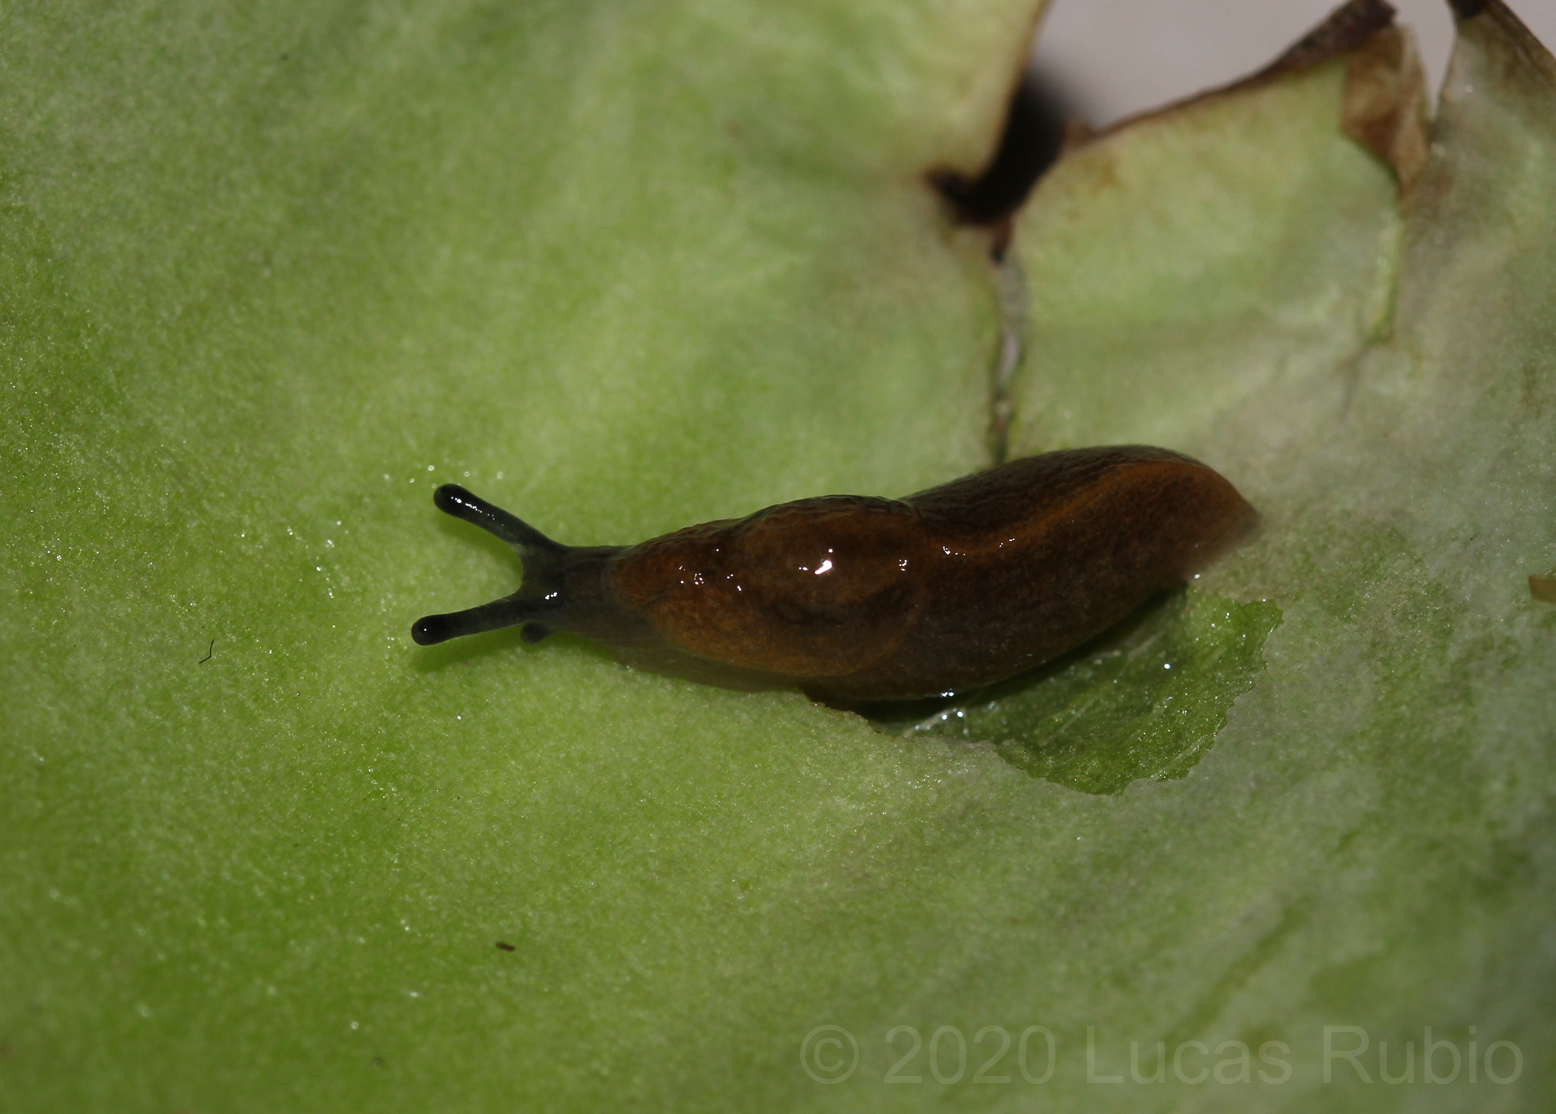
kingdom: Animalia
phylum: Mollusca
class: Gastropoda
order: Stylommatophora
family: Milacidae
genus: Milax
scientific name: Milax gagates
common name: Greenhouse slug
